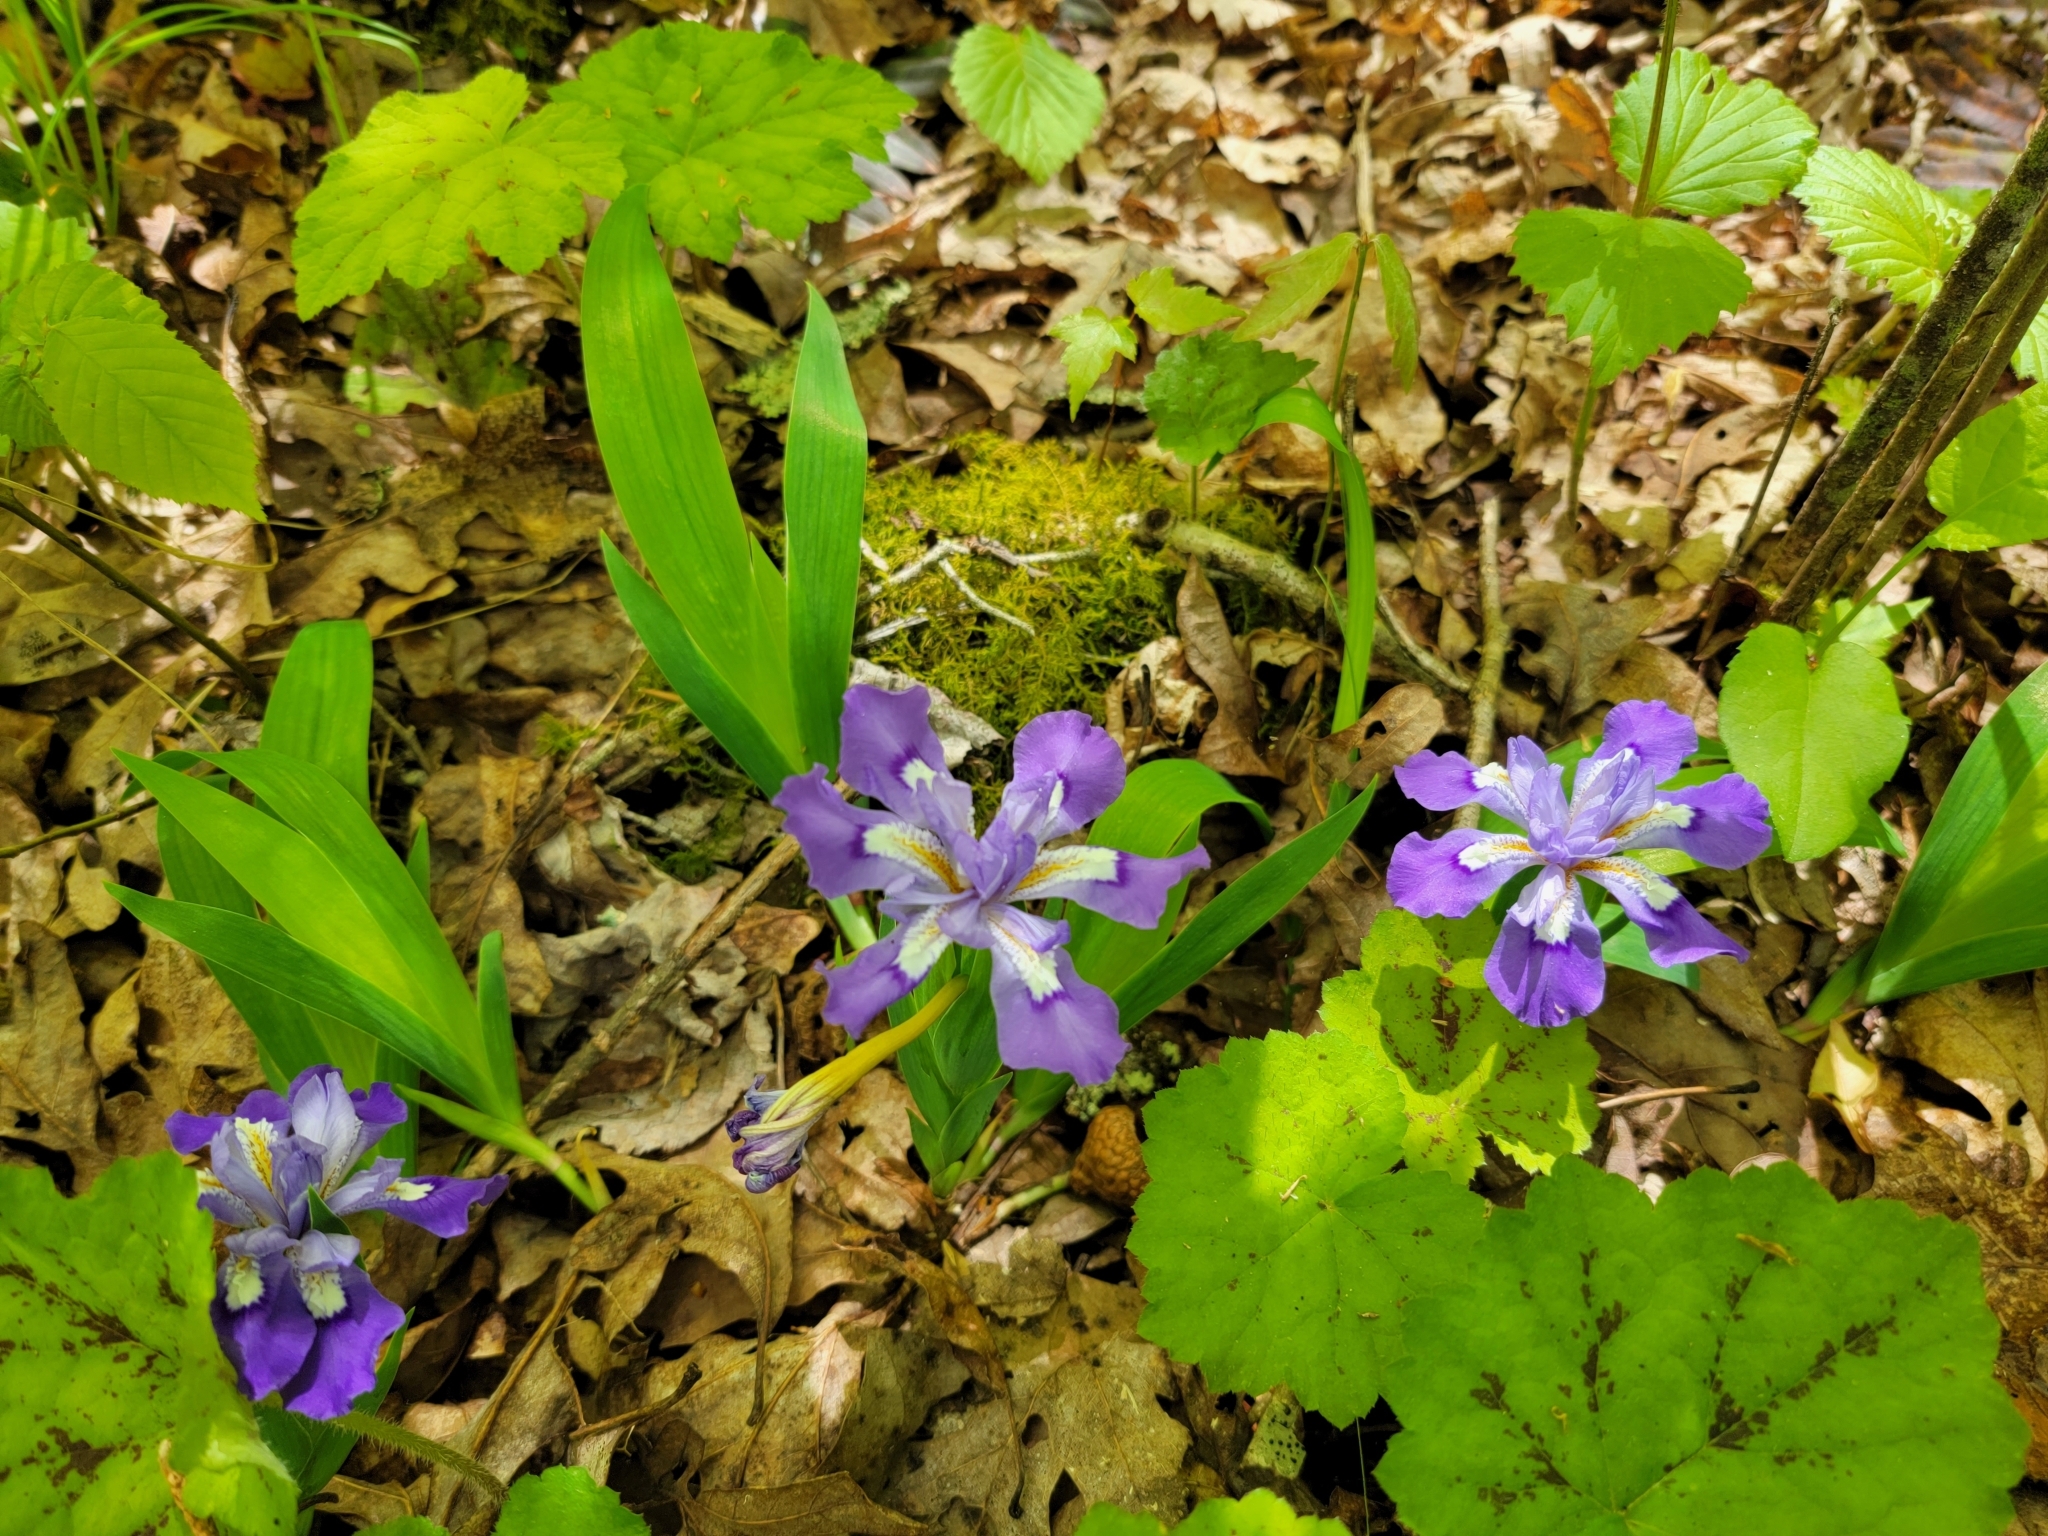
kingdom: Plantae
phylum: Tracheophyta
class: Liliopsida
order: Asparagales
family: Iridaceae
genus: Iris
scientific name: Iris cristata
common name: Crested iris
